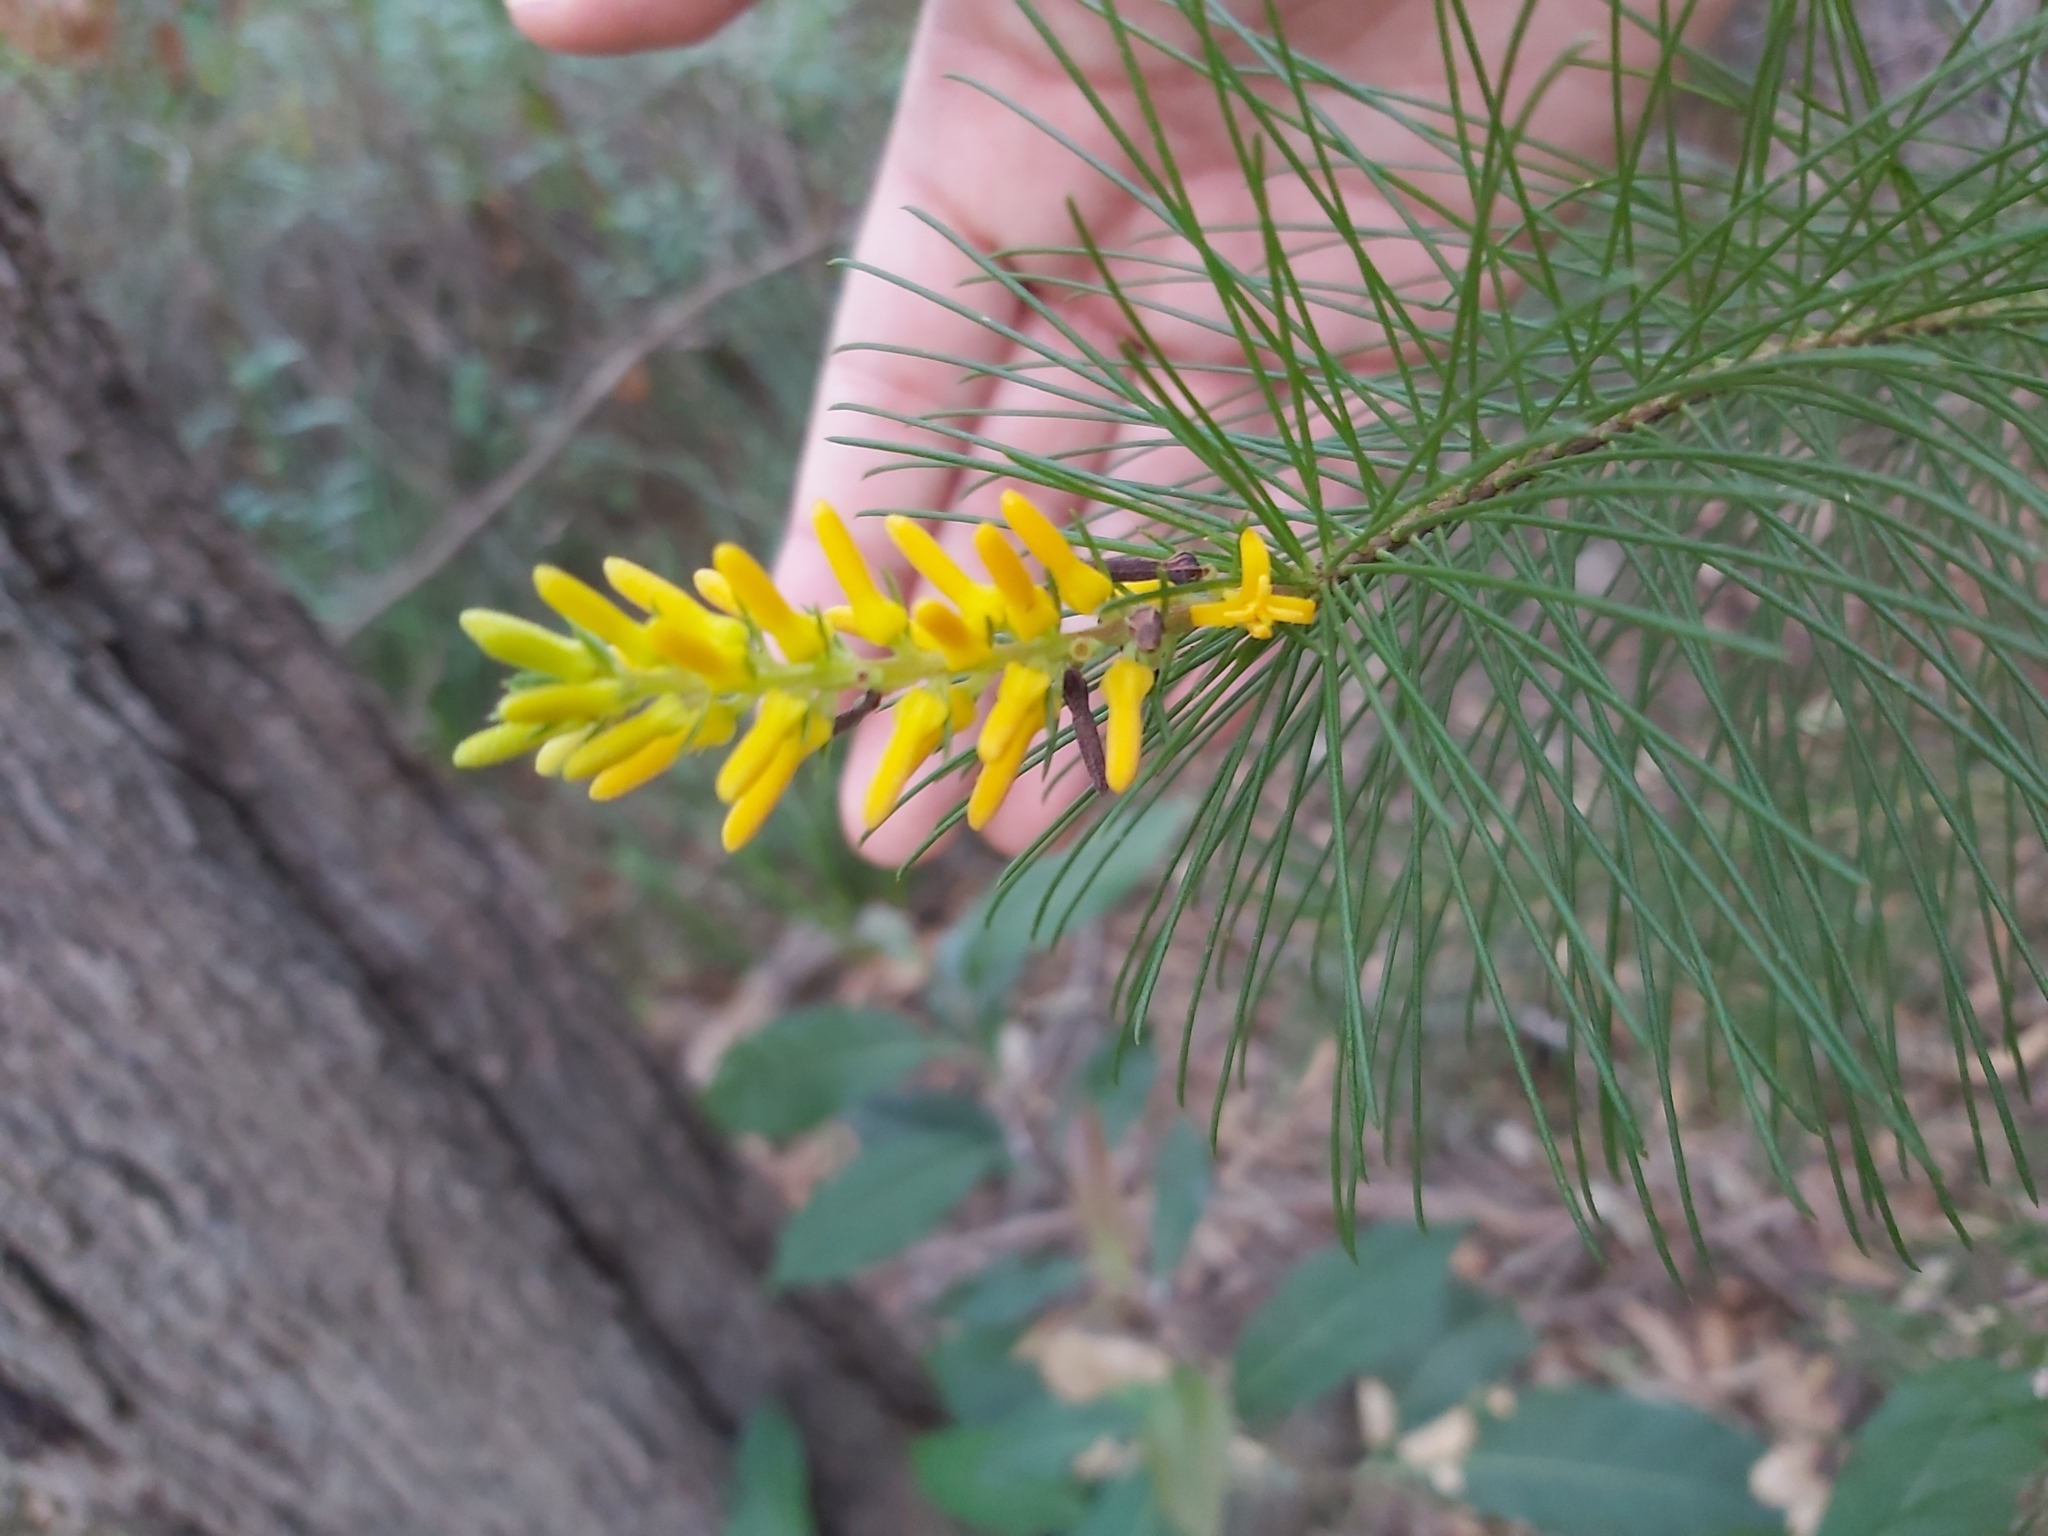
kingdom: Plantae
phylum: Tracheophyta
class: Magnoliopsida
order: Proteales
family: Proteaceae
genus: Persoonia
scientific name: Persoonia pinifolia
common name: Pine-leaf geebung
